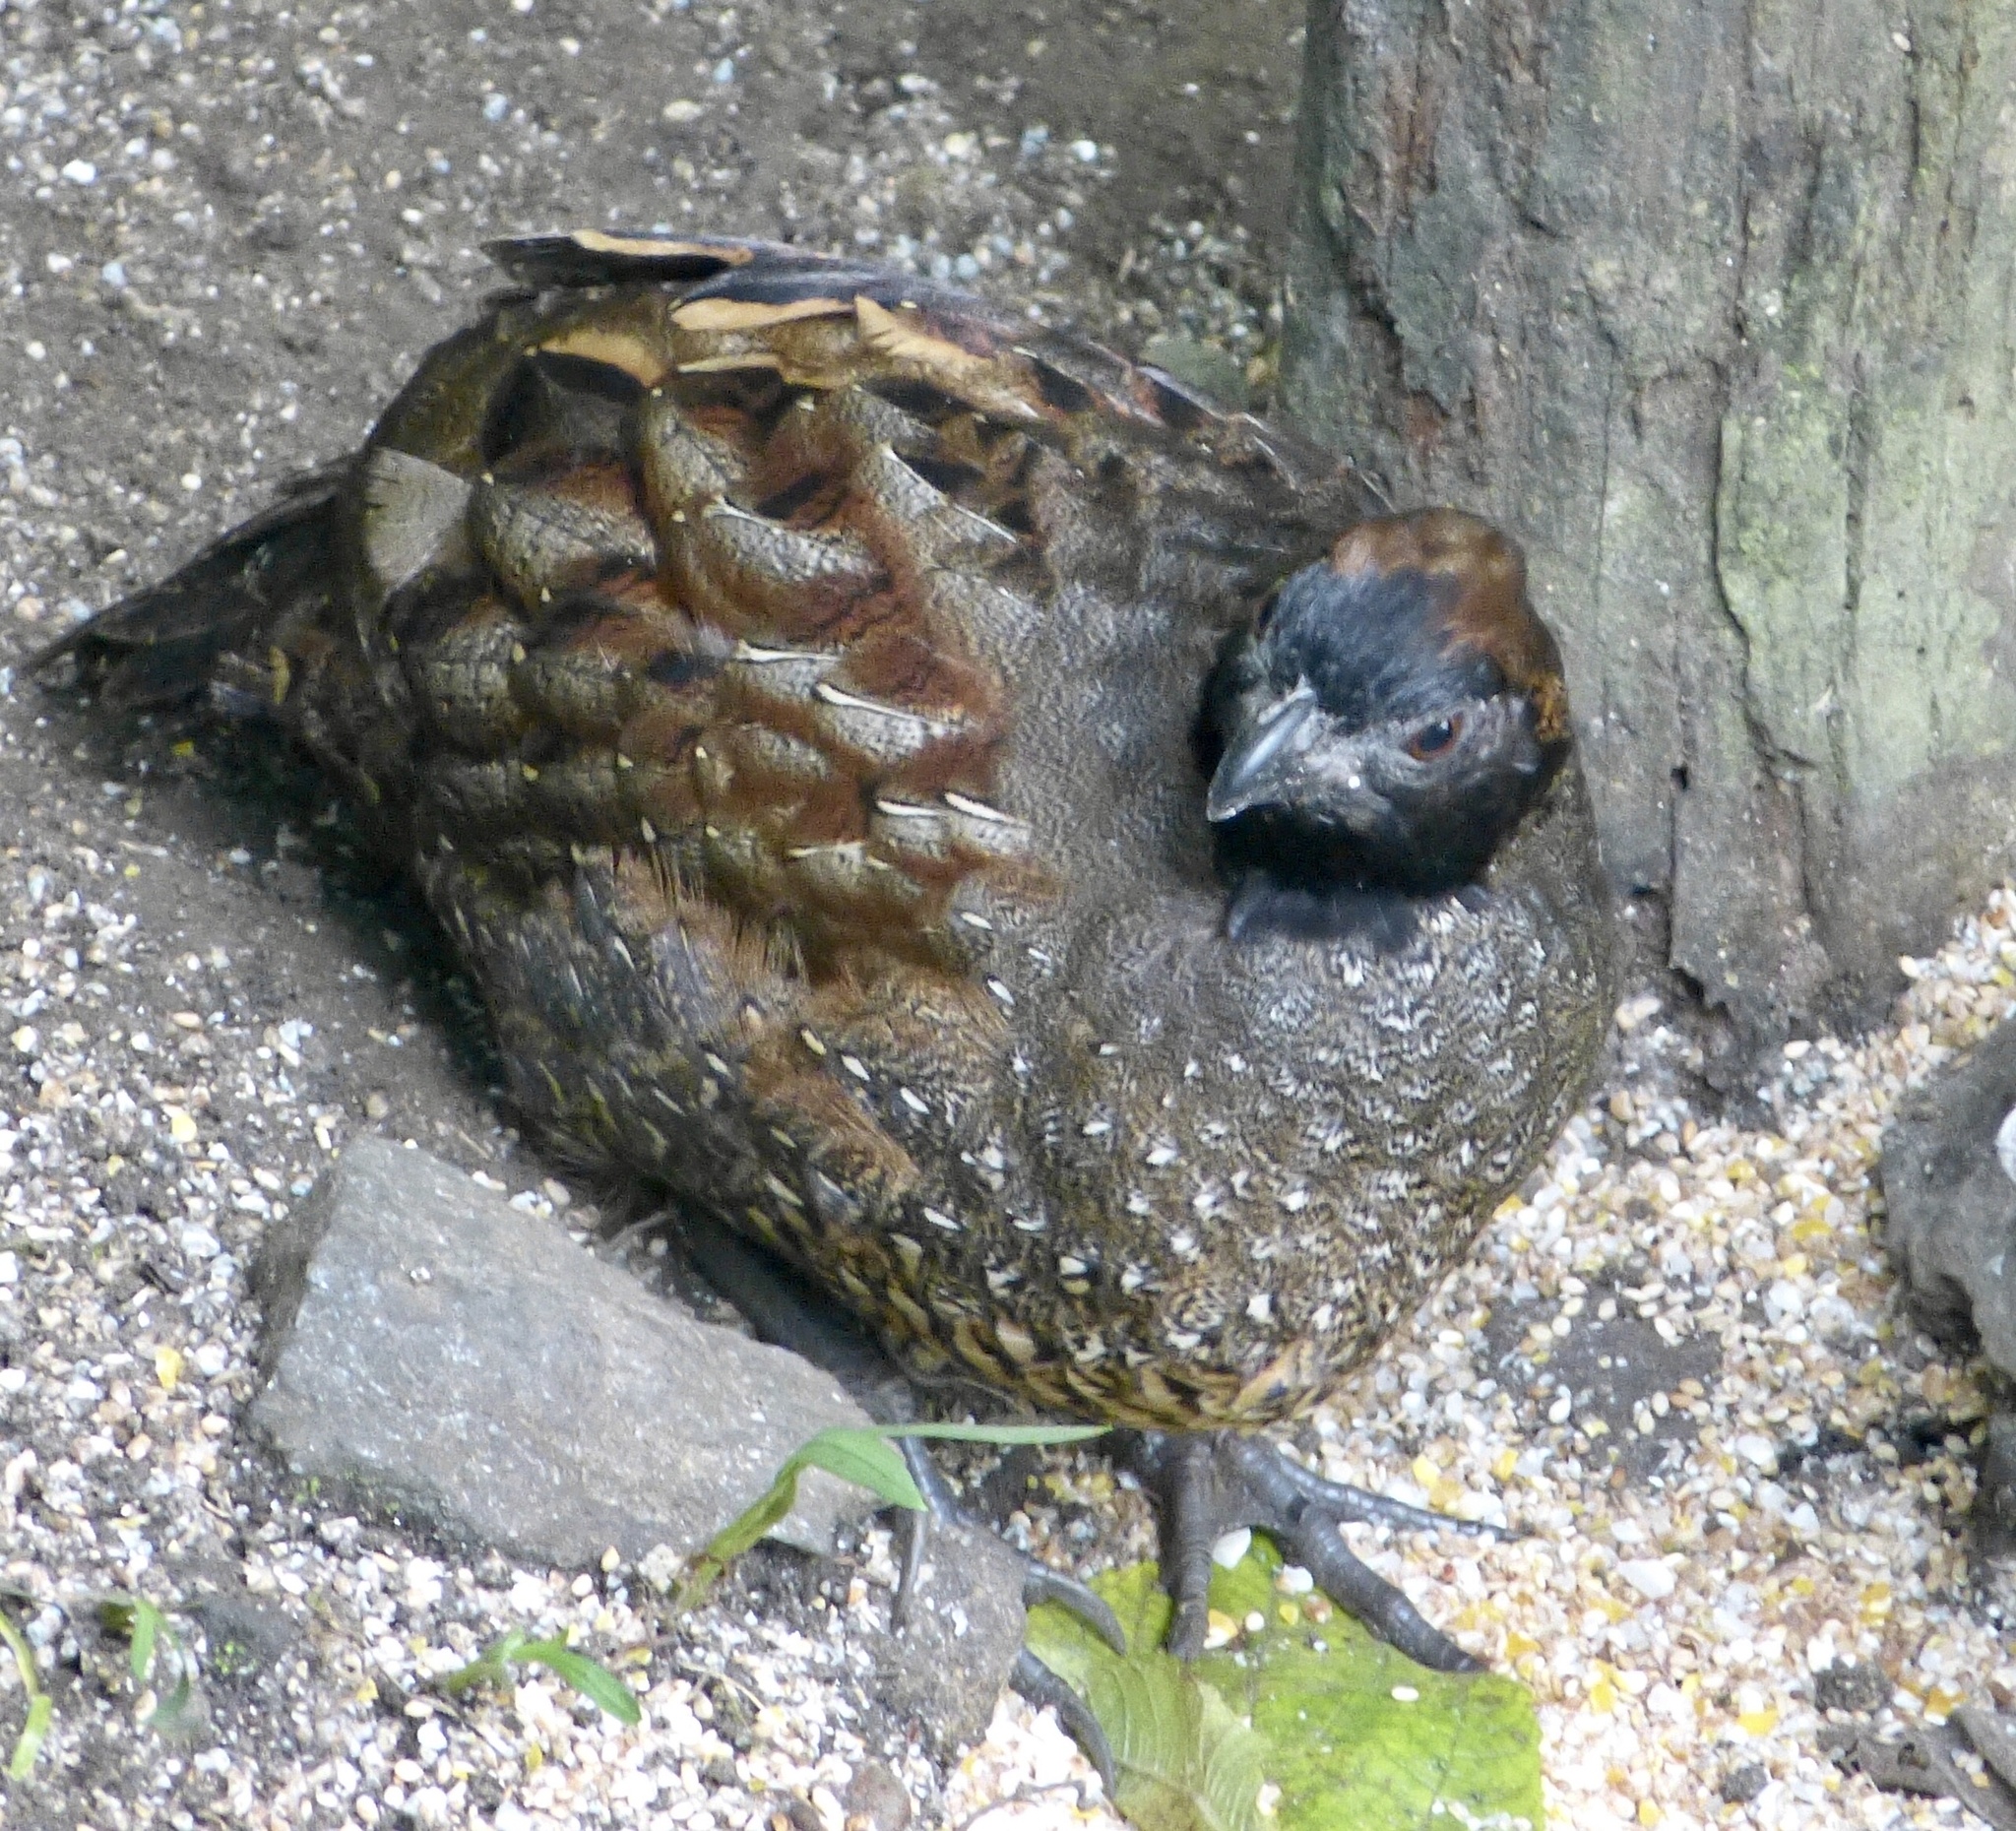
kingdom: Animalia
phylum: Chordata
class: Aves
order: Galliformes
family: Odontophoridae
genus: Odontophorus
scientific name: Odontophorus atrifrons
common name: Black-fronted wood-quail
